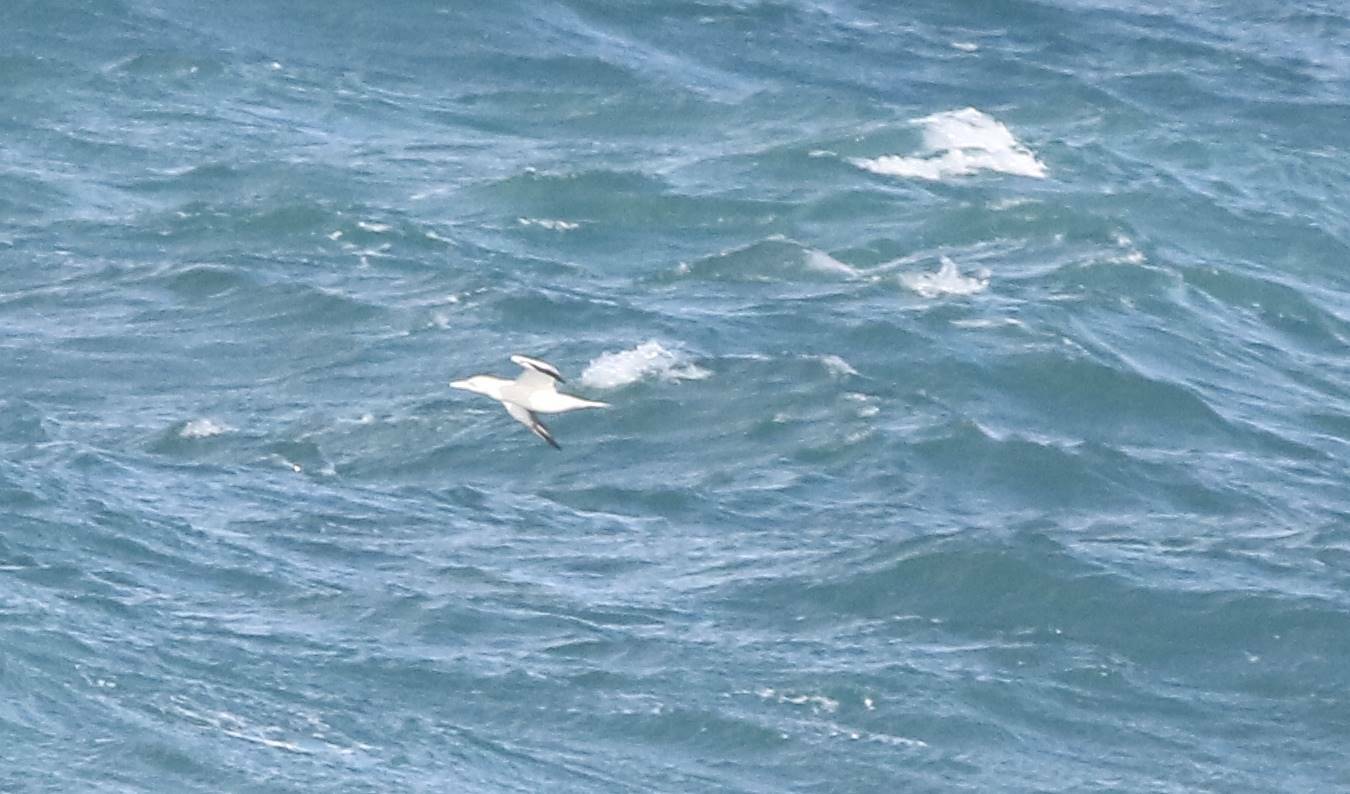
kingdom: Animalia
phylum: Chordata
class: Aves
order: Suliformes
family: Sulidae
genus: Morus
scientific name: Morus bassanus
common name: Northern gannet
